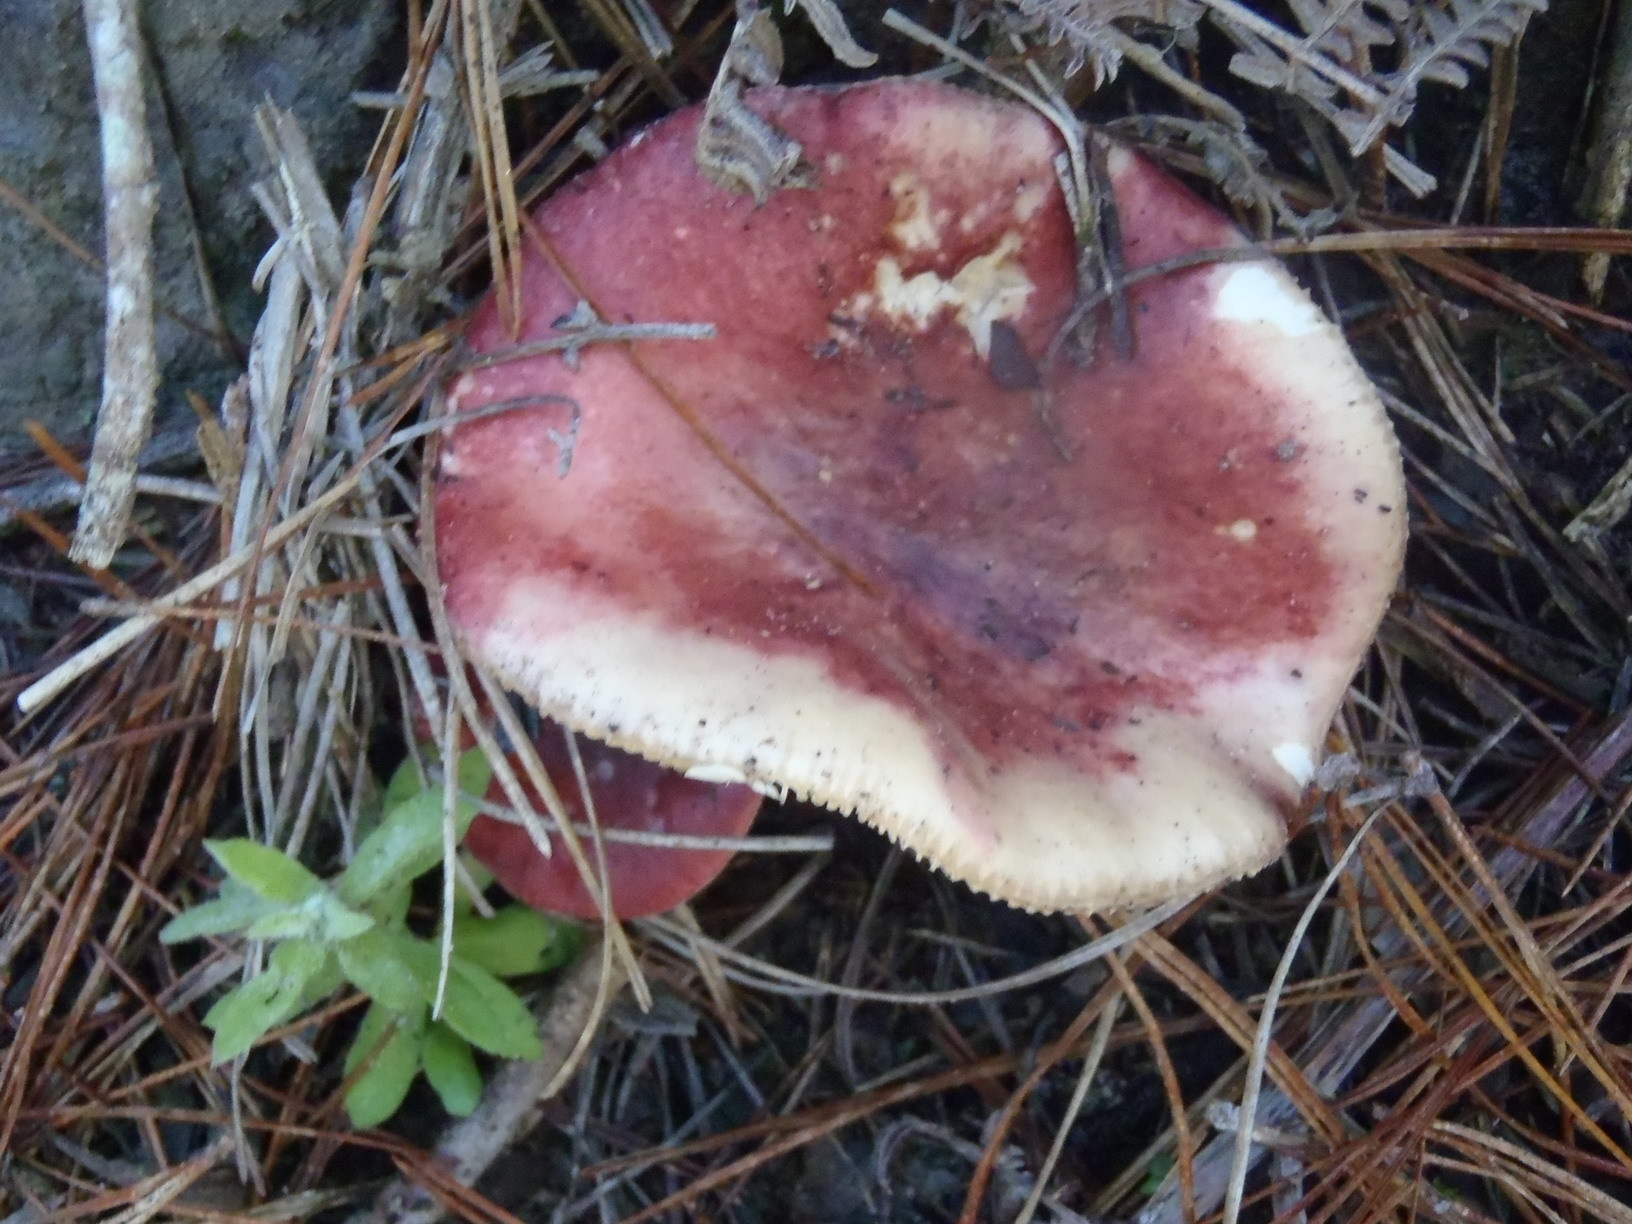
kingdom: Fungi
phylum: Basidiomycota
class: Agaricomycetes
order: Russulales
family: Russulaceae
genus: Russula
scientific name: Russula sardonia
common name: Primrose brittlegill
